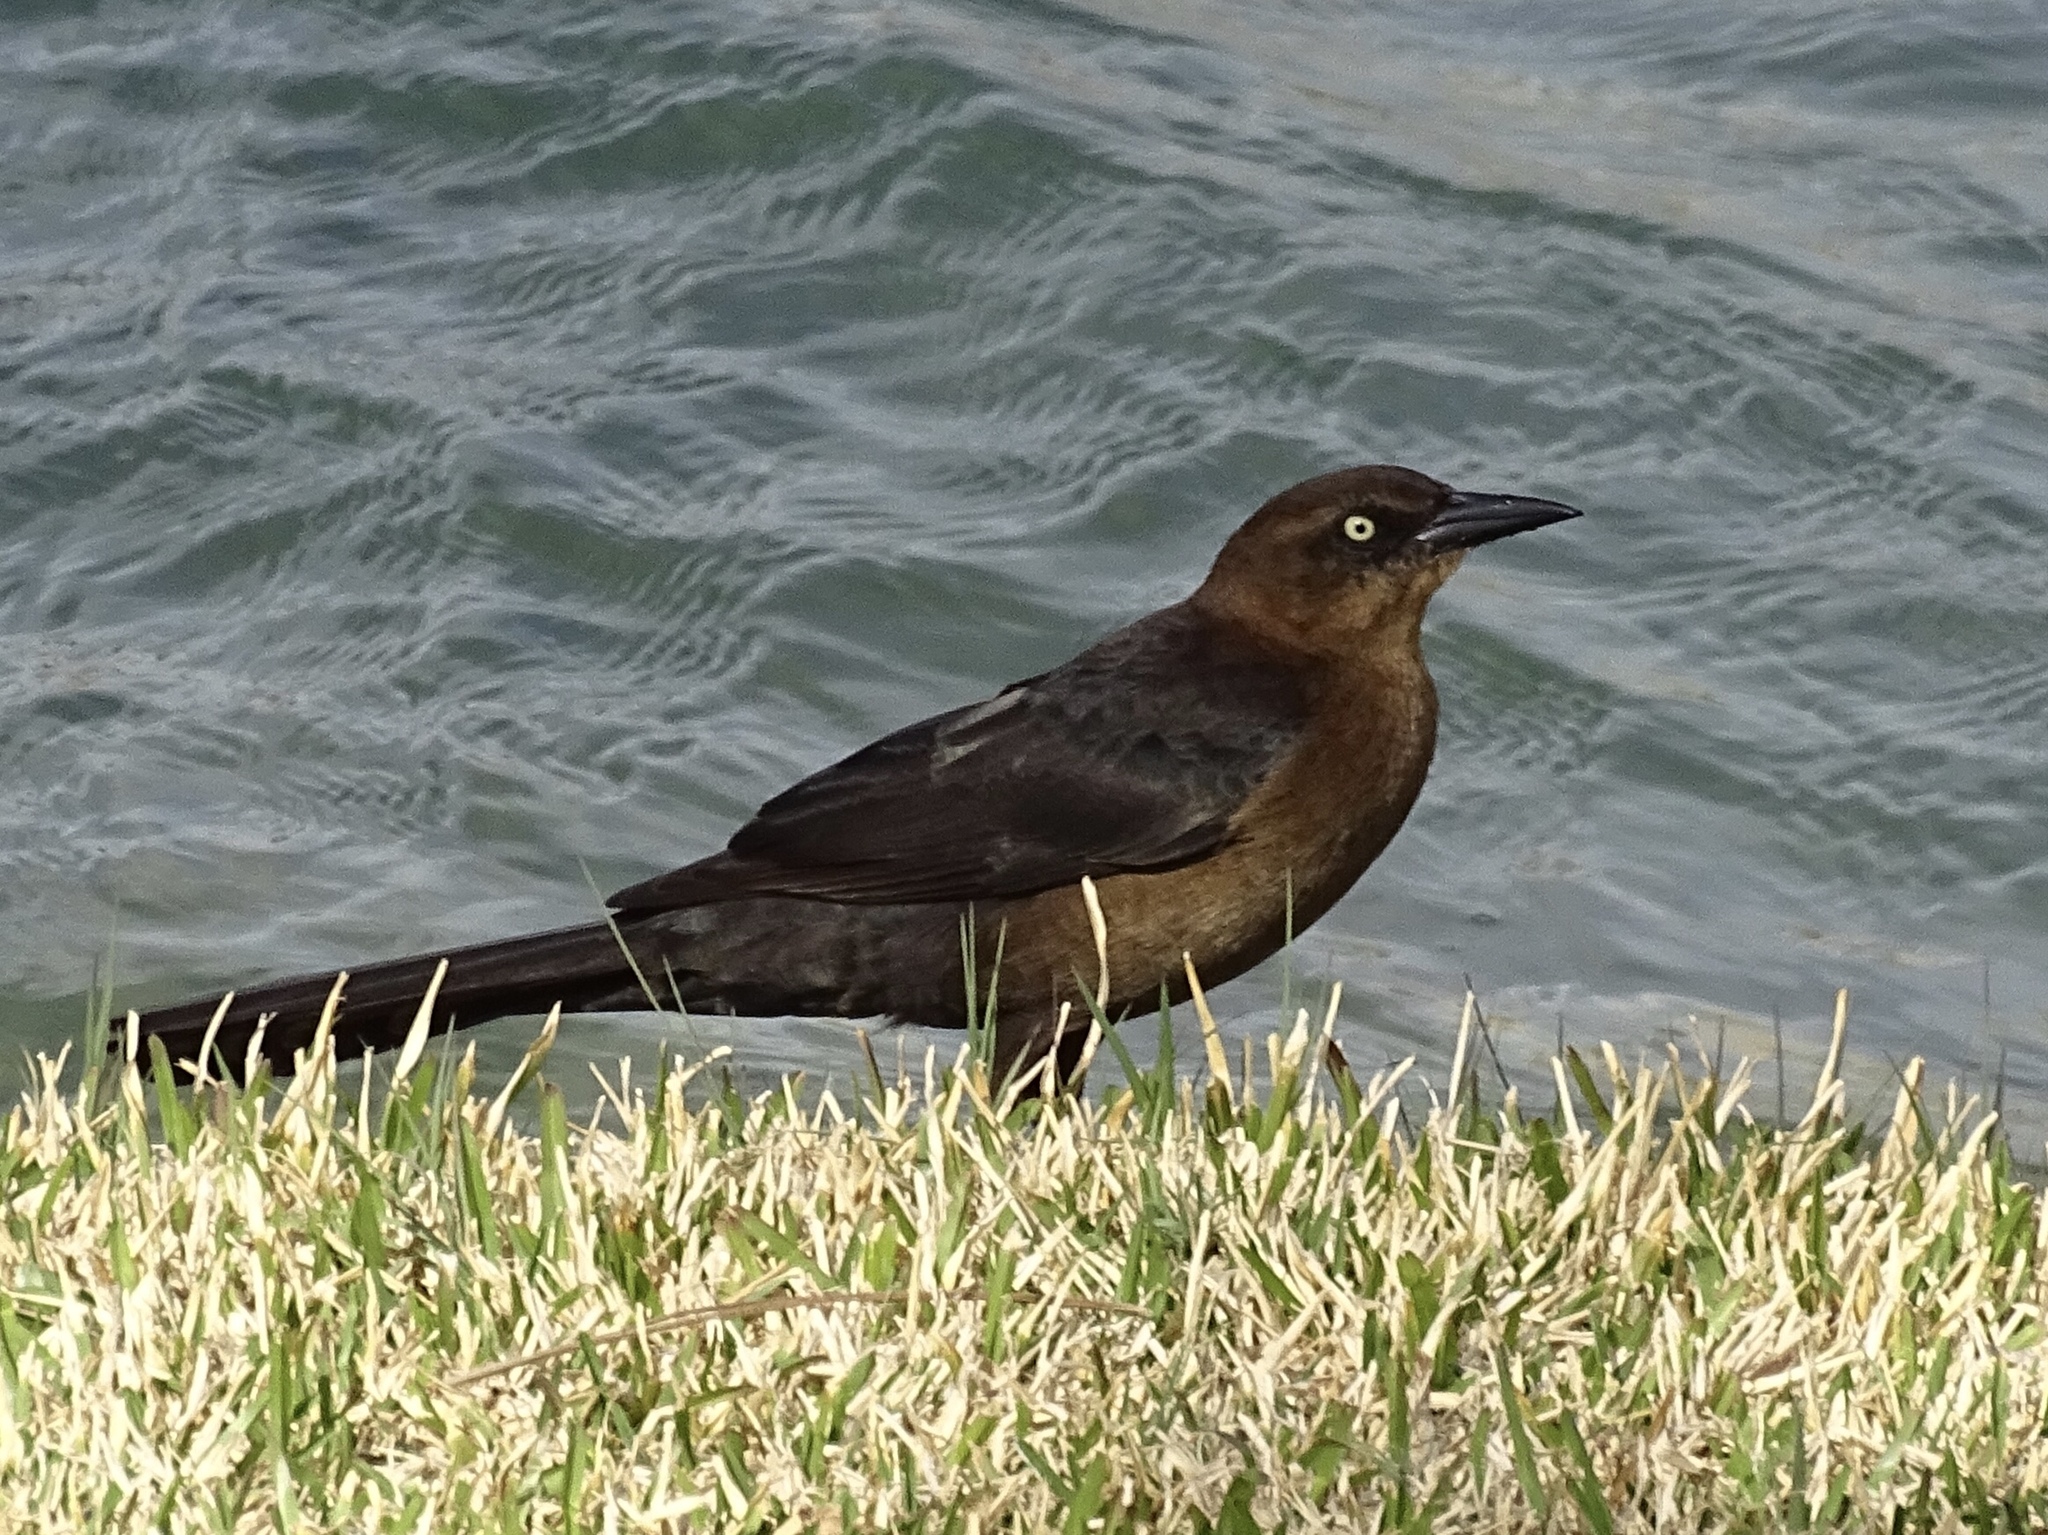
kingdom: Animalia
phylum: Chordata
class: Aves
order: Passeriformes
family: Icteridae
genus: Quiscalus
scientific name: Quiscalus mexicanus
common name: Great-tailed grackle
